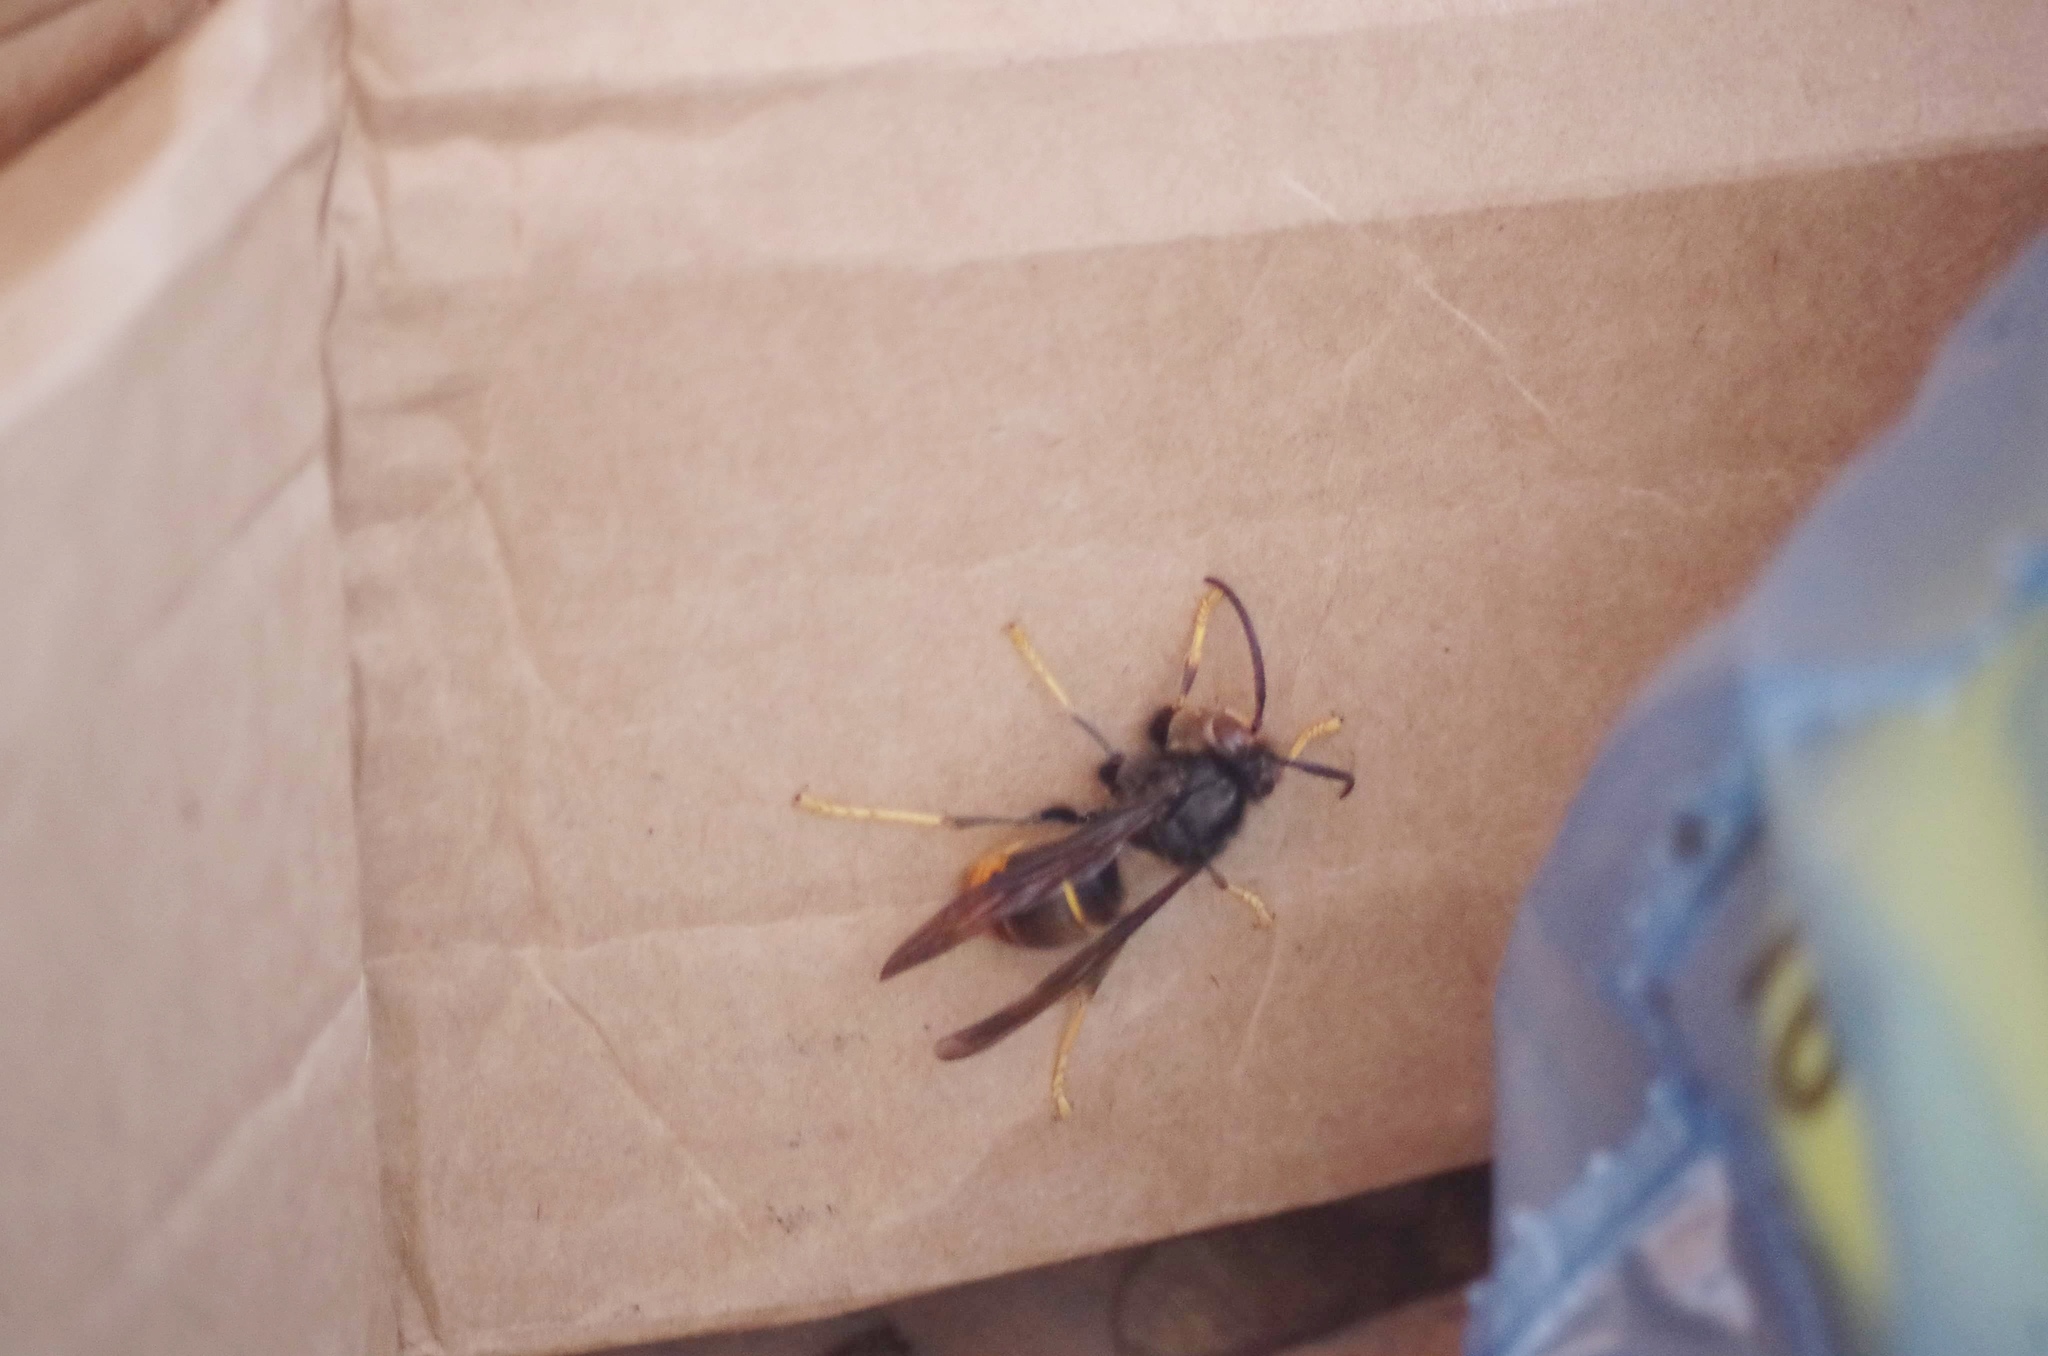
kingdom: Animalia
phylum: Arthropoda
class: Insecta
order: Hymenoptera
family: Vespidae
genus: Vespa
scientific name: Vespa velutina
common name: Asian hornet
